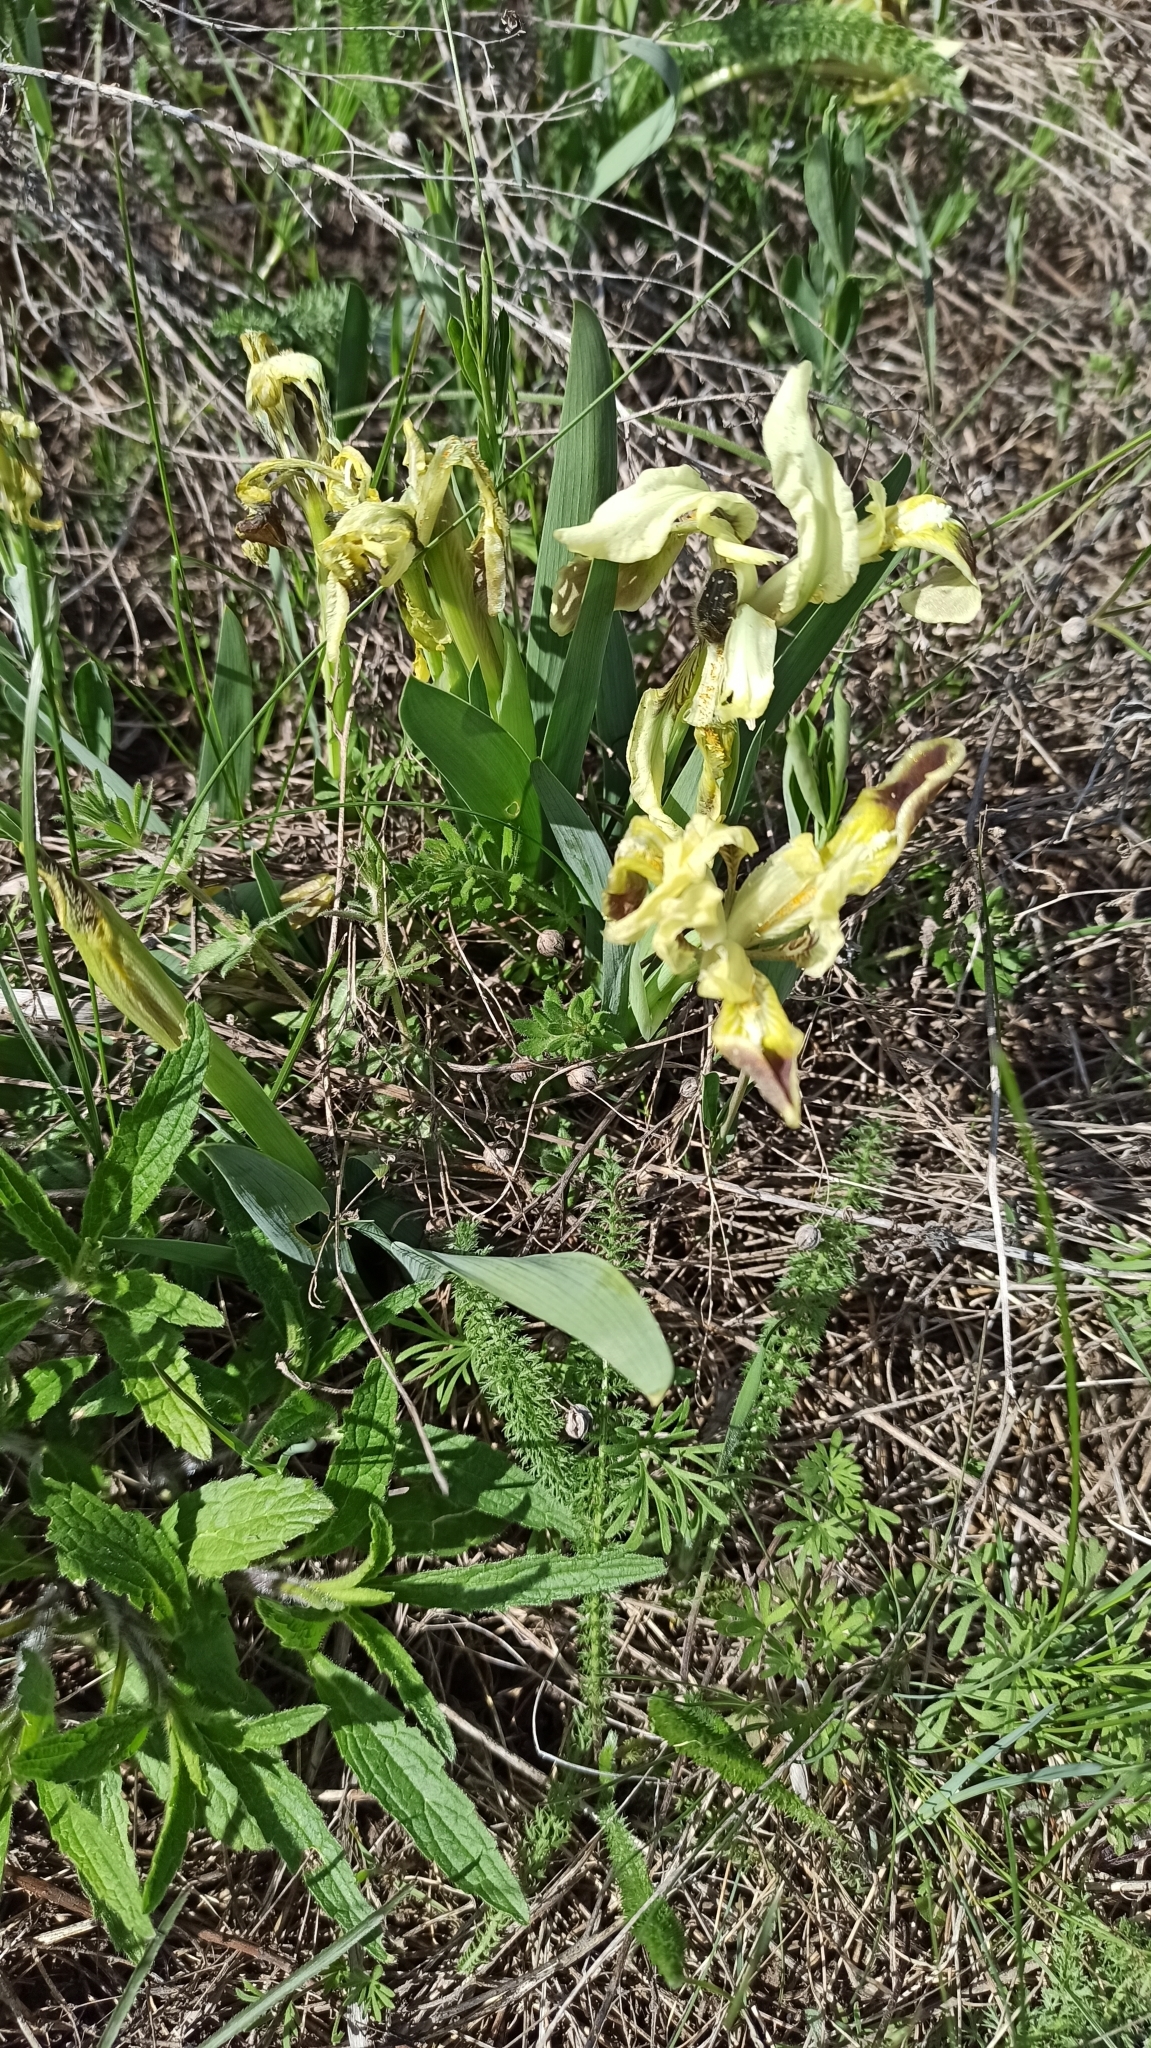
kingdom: Plantae
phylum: Tracheophyta
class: Liliopsida
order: Asparagales
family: Iridaceae
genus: Iris
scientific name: Iris pumila
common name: Dwarf iris
